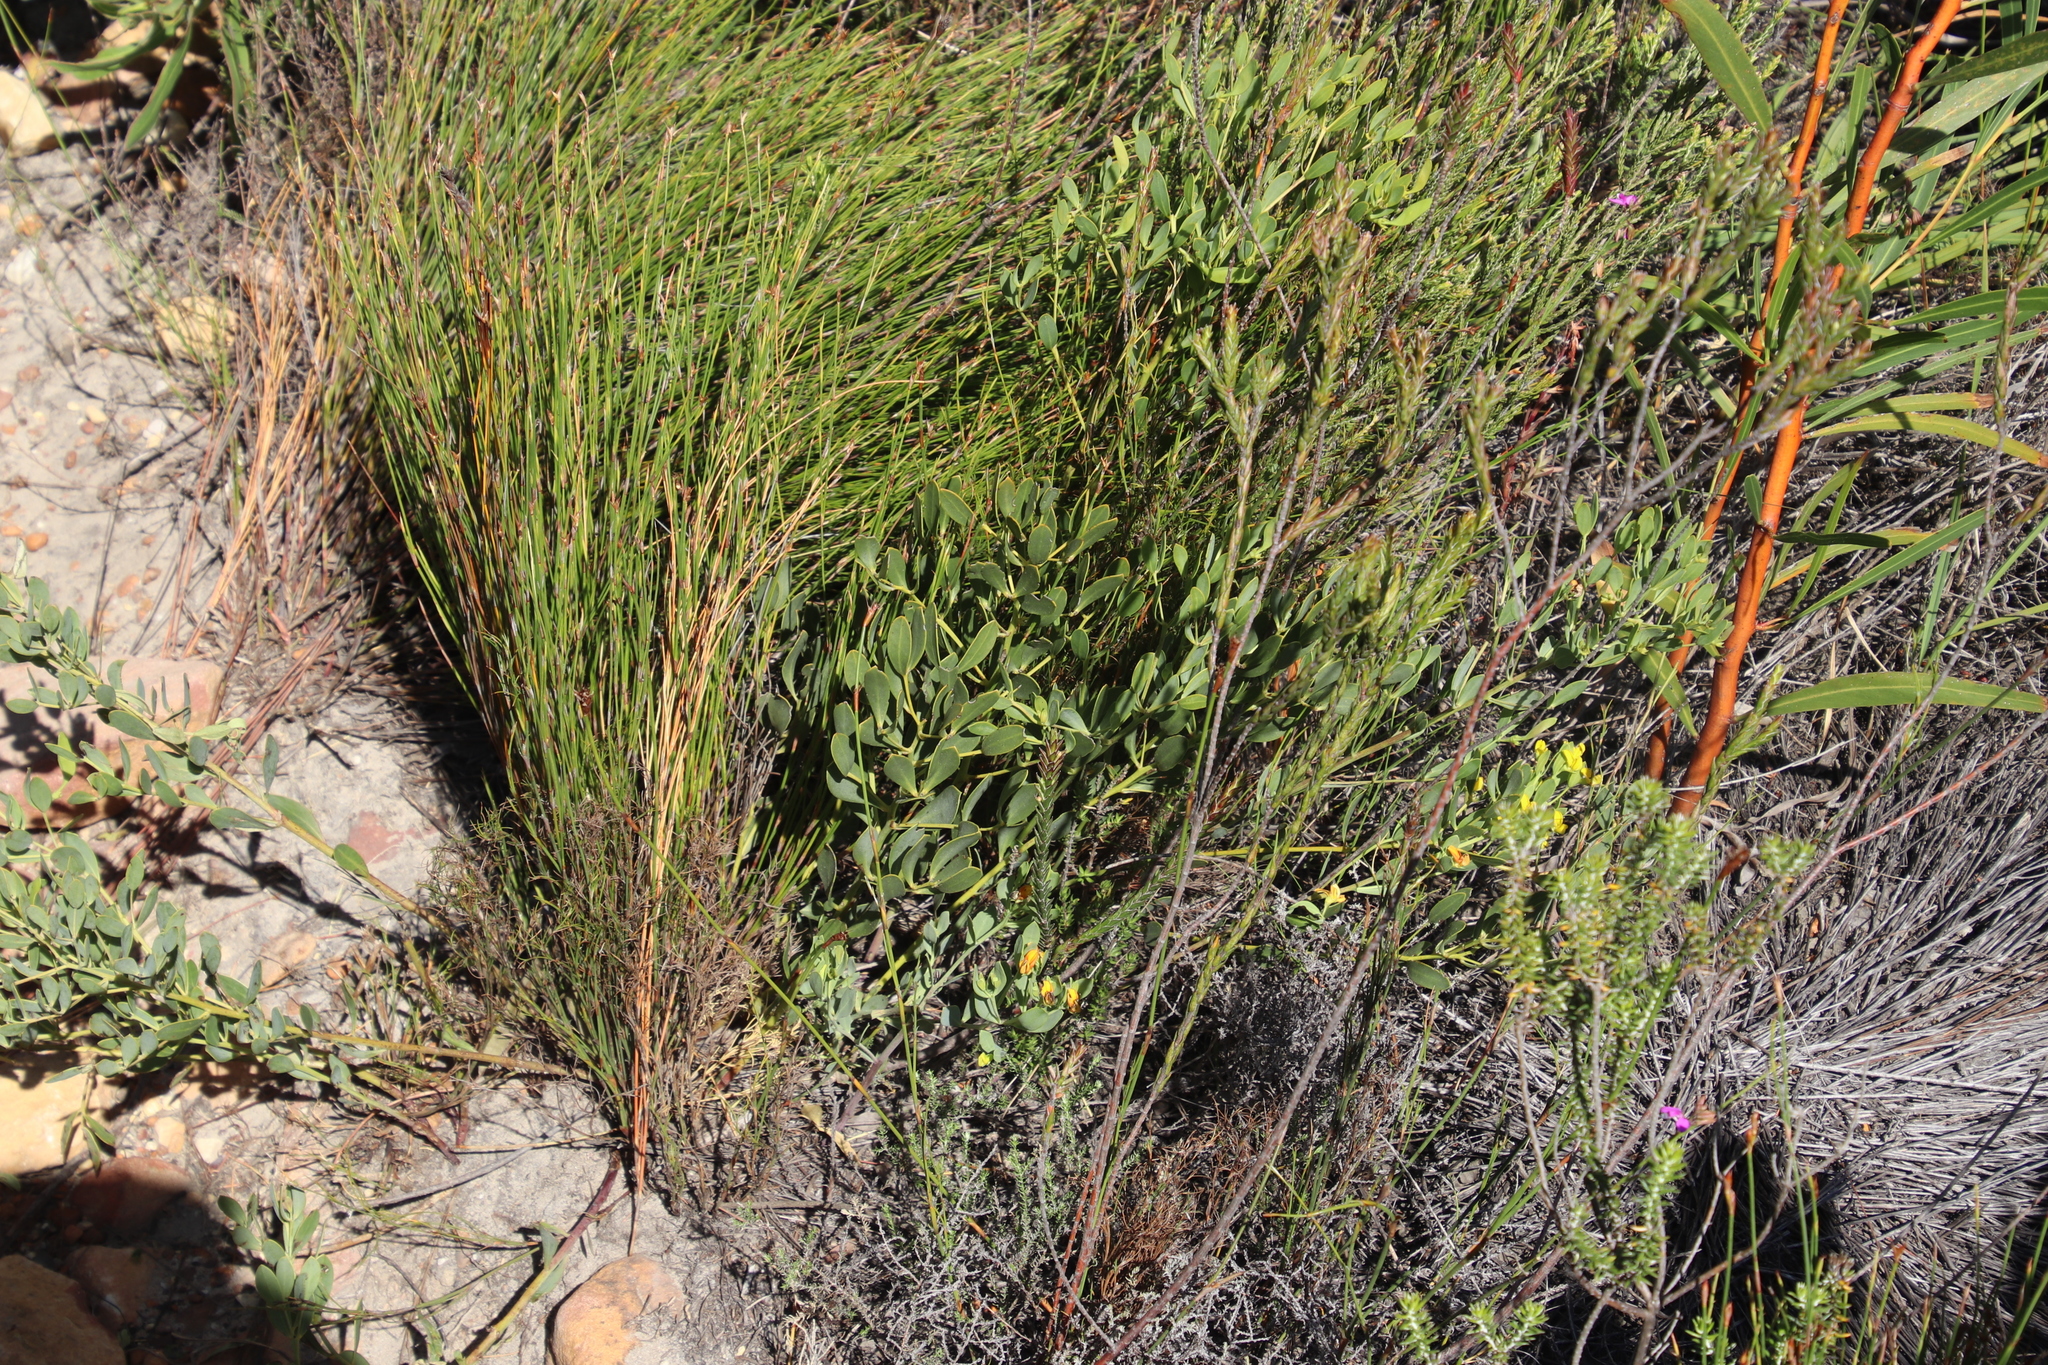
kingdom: Plantae
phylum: Tracheophyta
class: Magnoliopsida
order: Fabales
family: Fabaceae
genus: Rafnia
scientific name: Rafnia angulata
